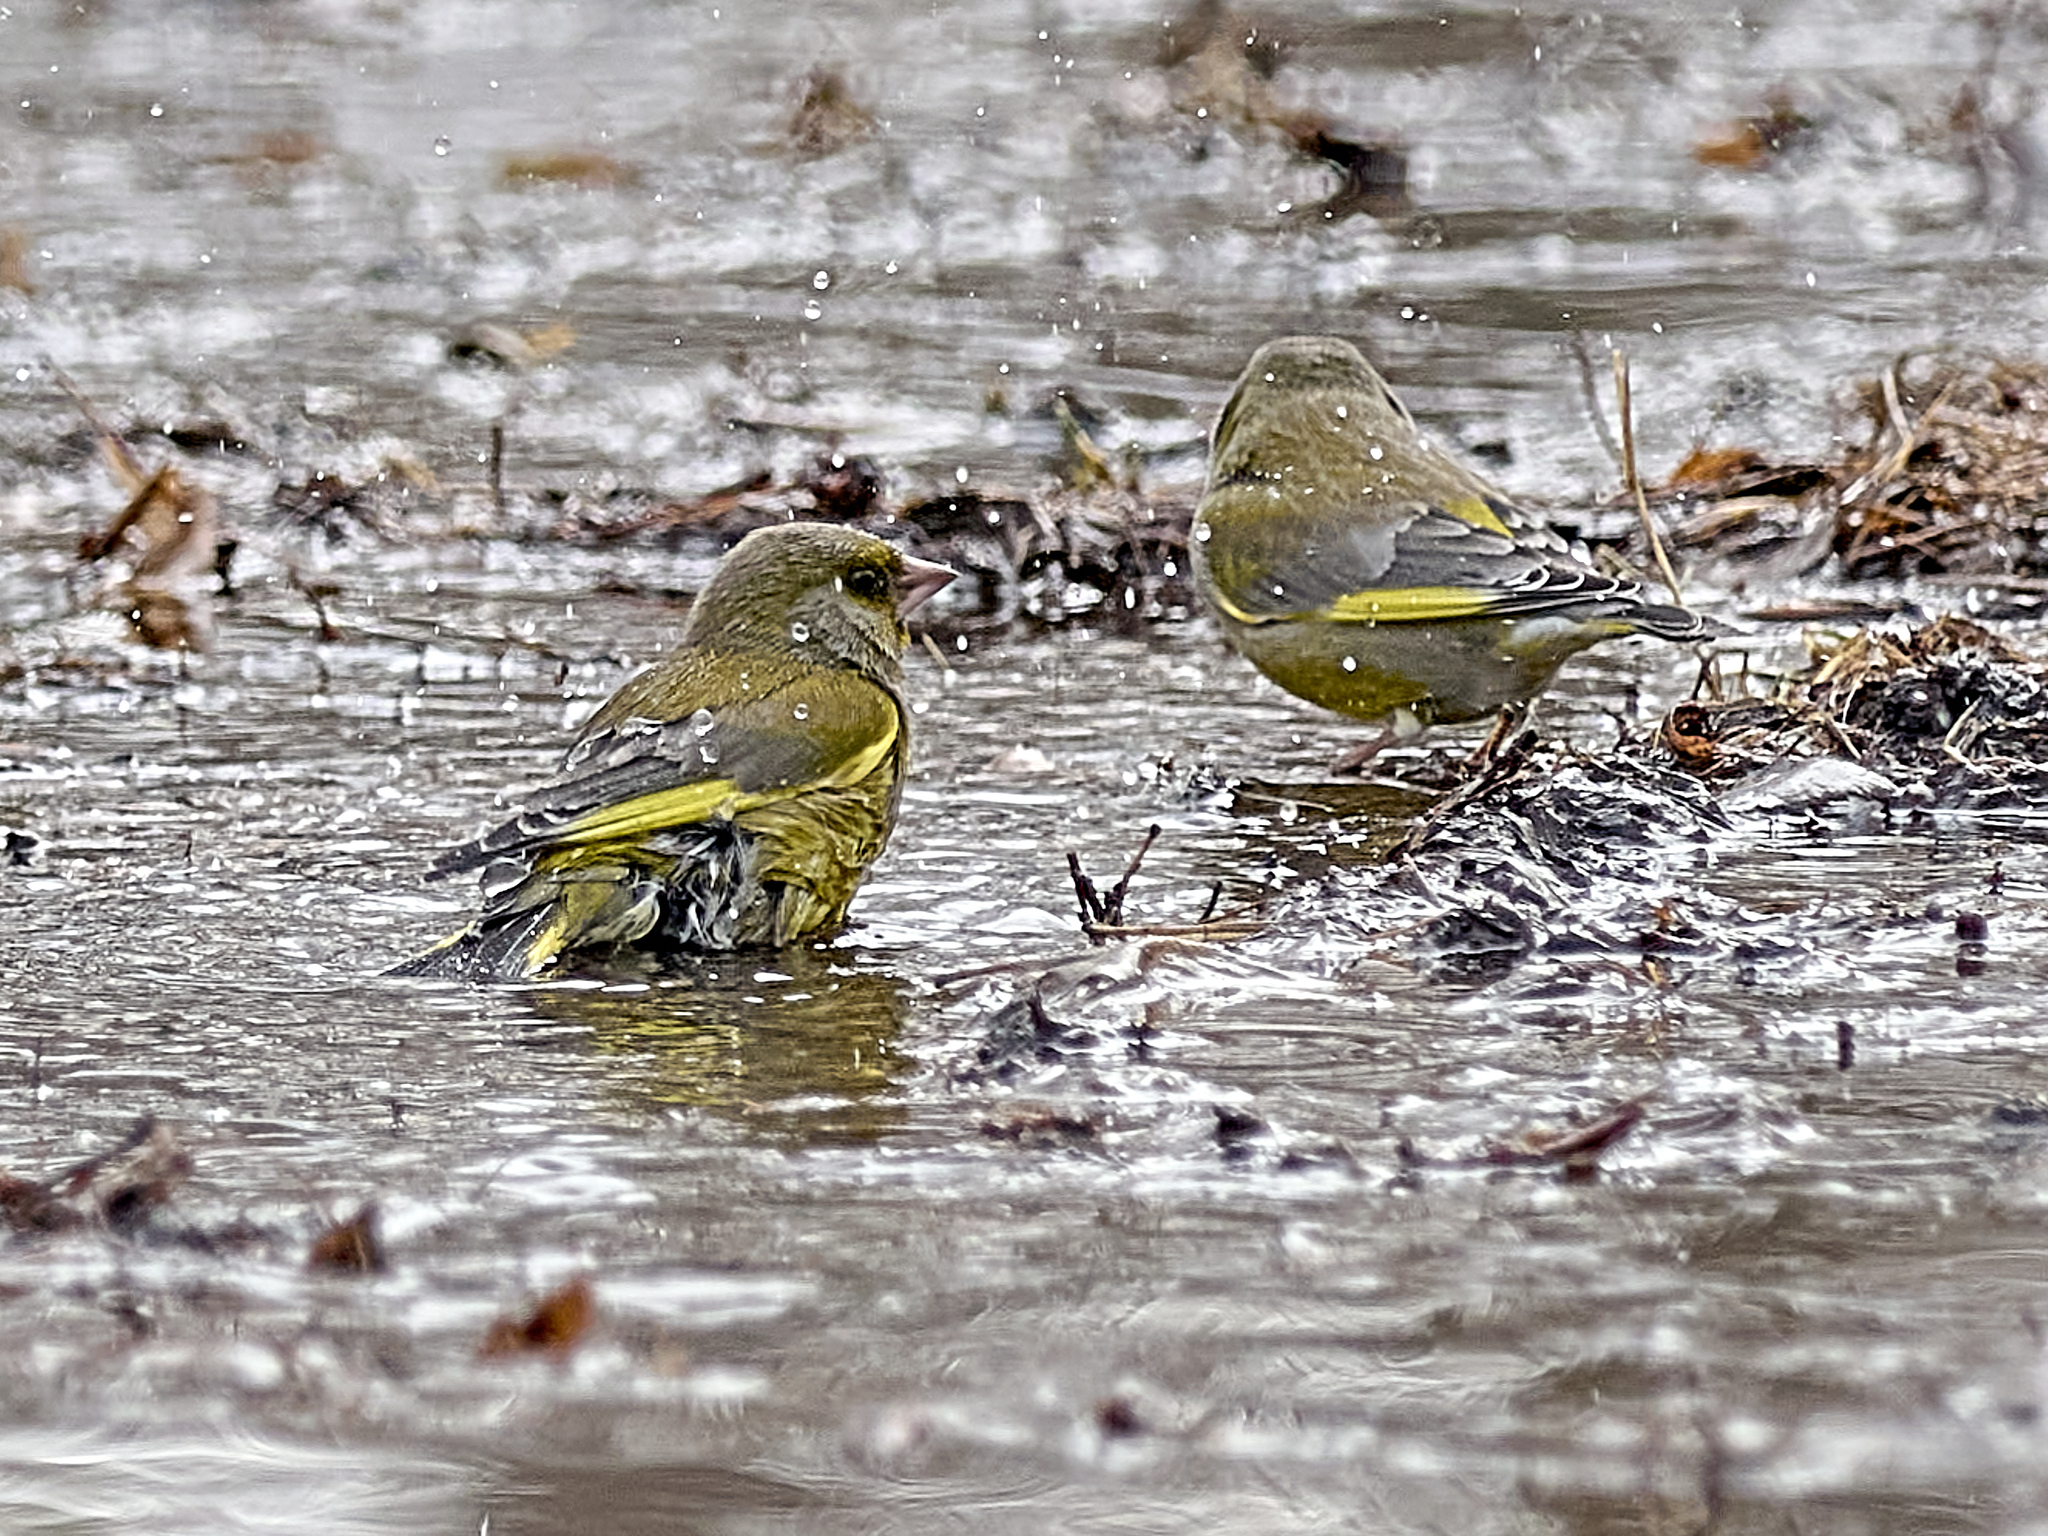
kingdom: Plantae
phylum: Tracheophyta
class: Liliopsida
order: Poales
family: Poaceae
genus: Chloris
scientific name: Chloris chloris
